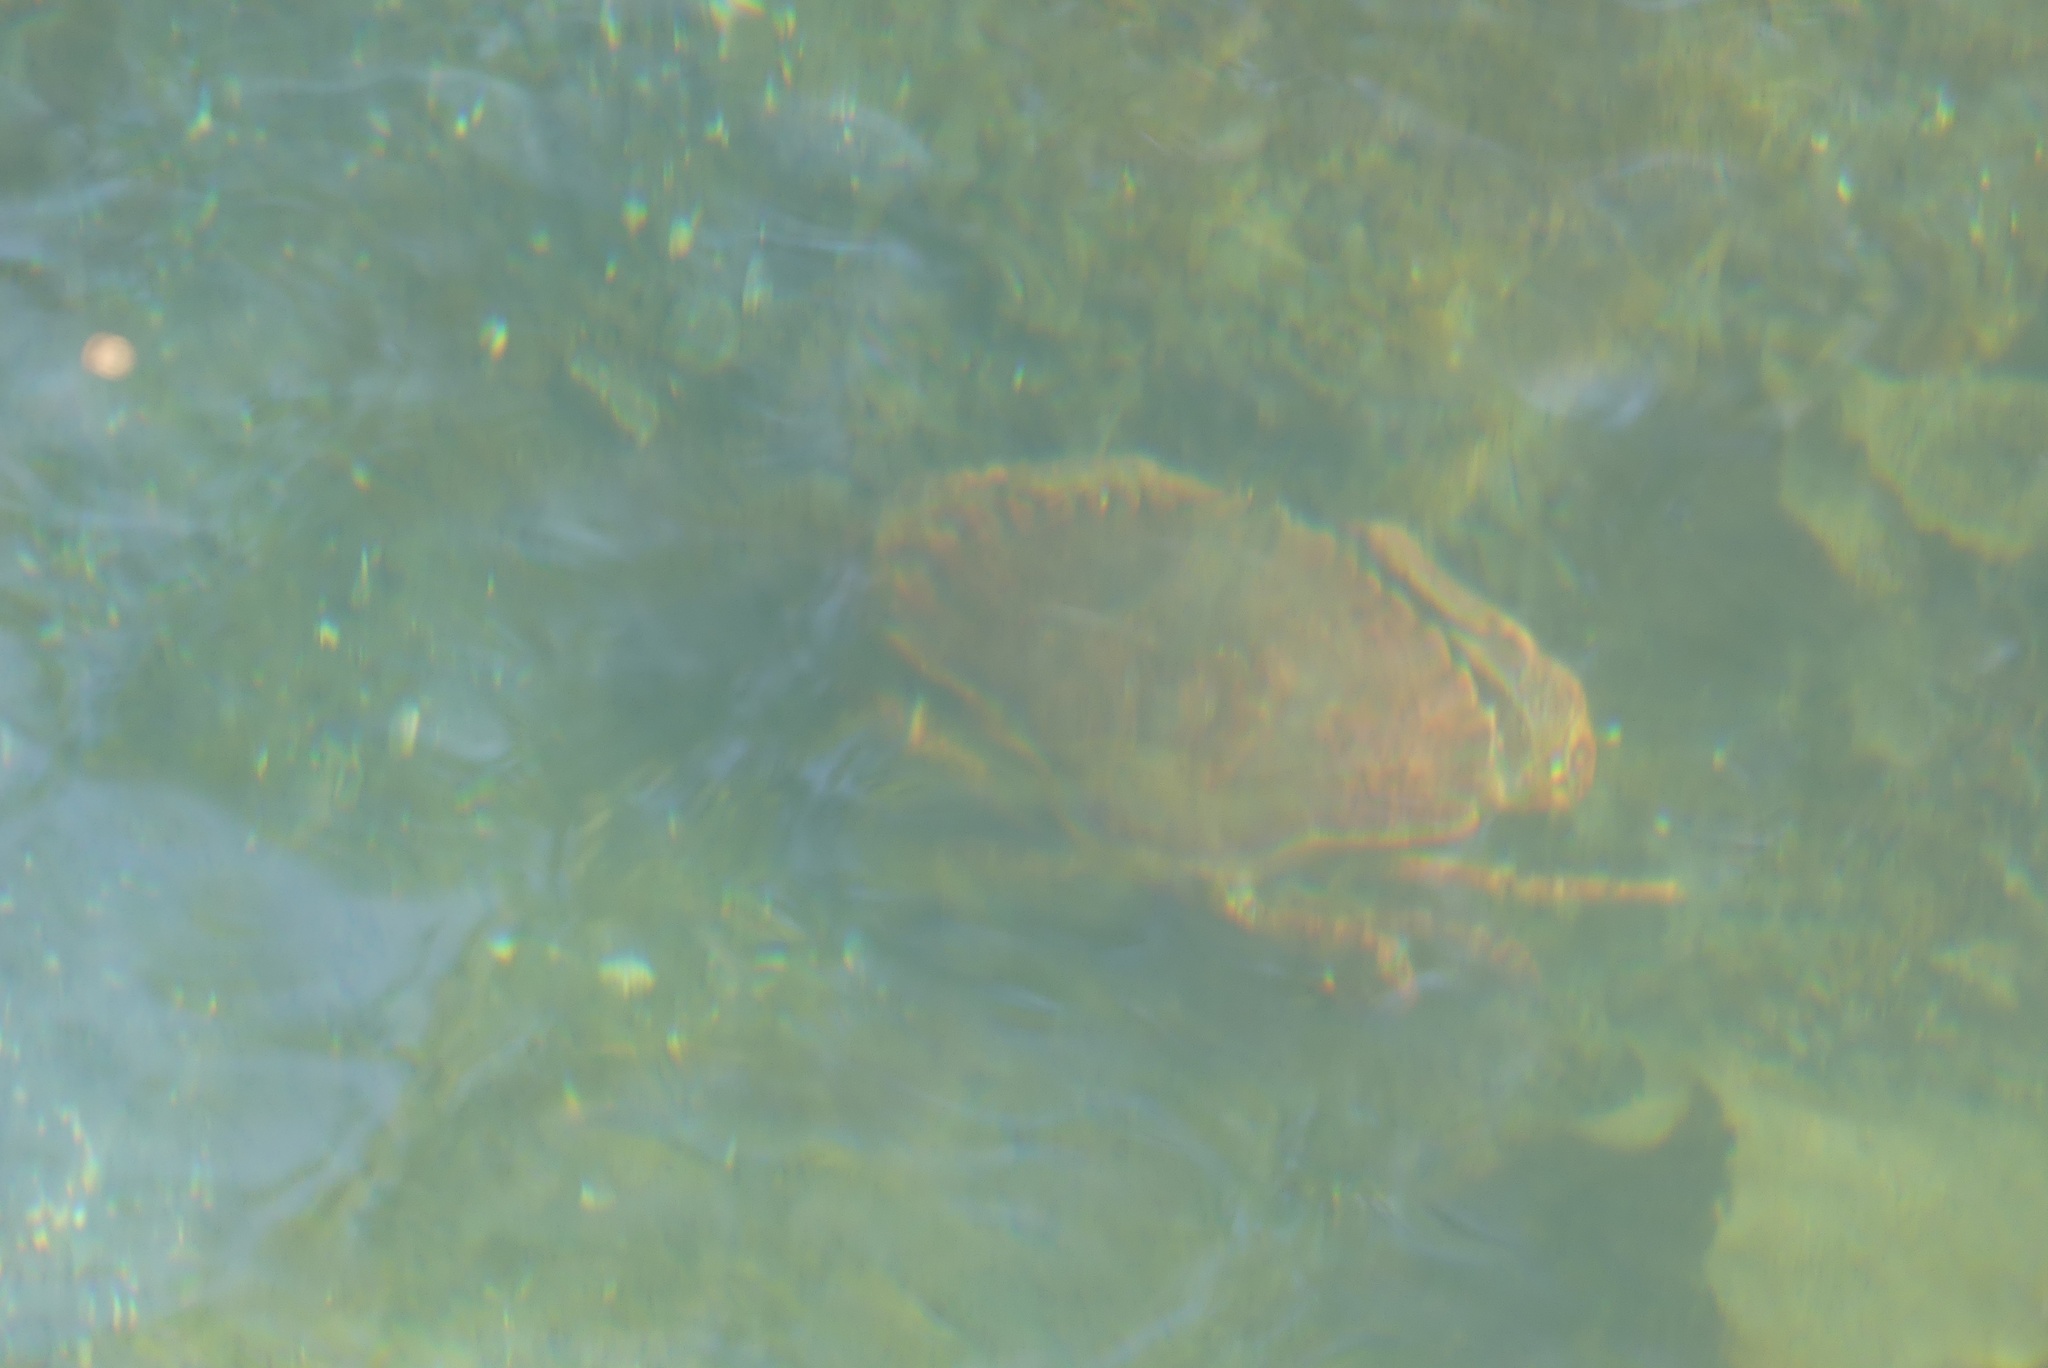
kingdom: Animalia
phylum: Arthropoda
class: Malacostraca
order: Decapoda
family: Cancridae
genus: Cancer
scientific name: Cancer productus
